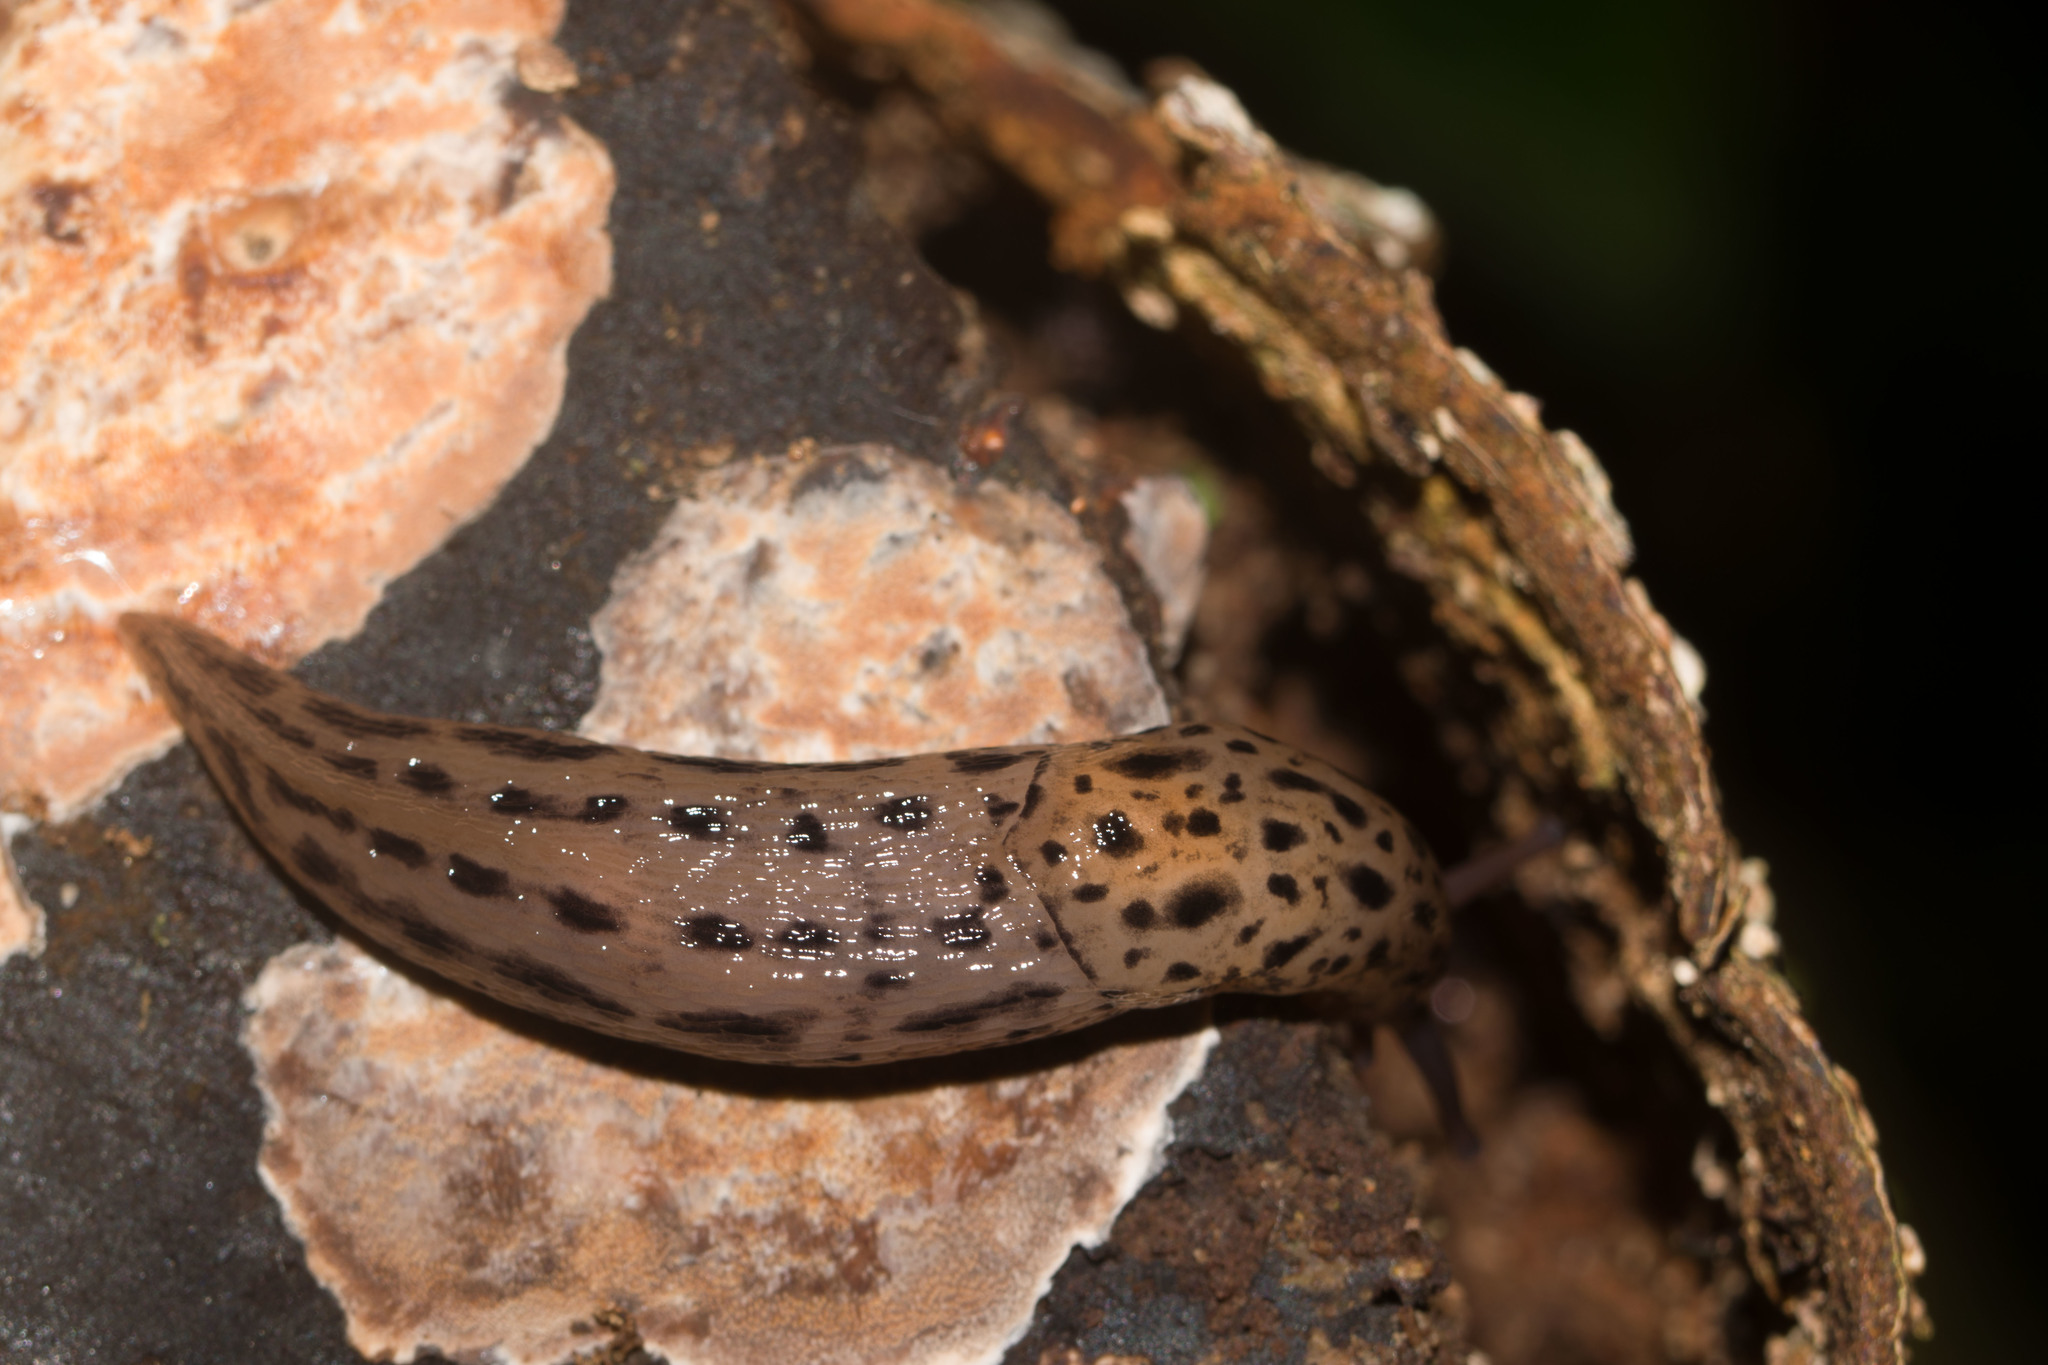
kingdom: Animalia
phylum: Mollusca
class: Gastropoda
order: Stylommatophora
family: Limacidae
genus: Limax
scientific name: Limax maximus
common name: Great grey slug
